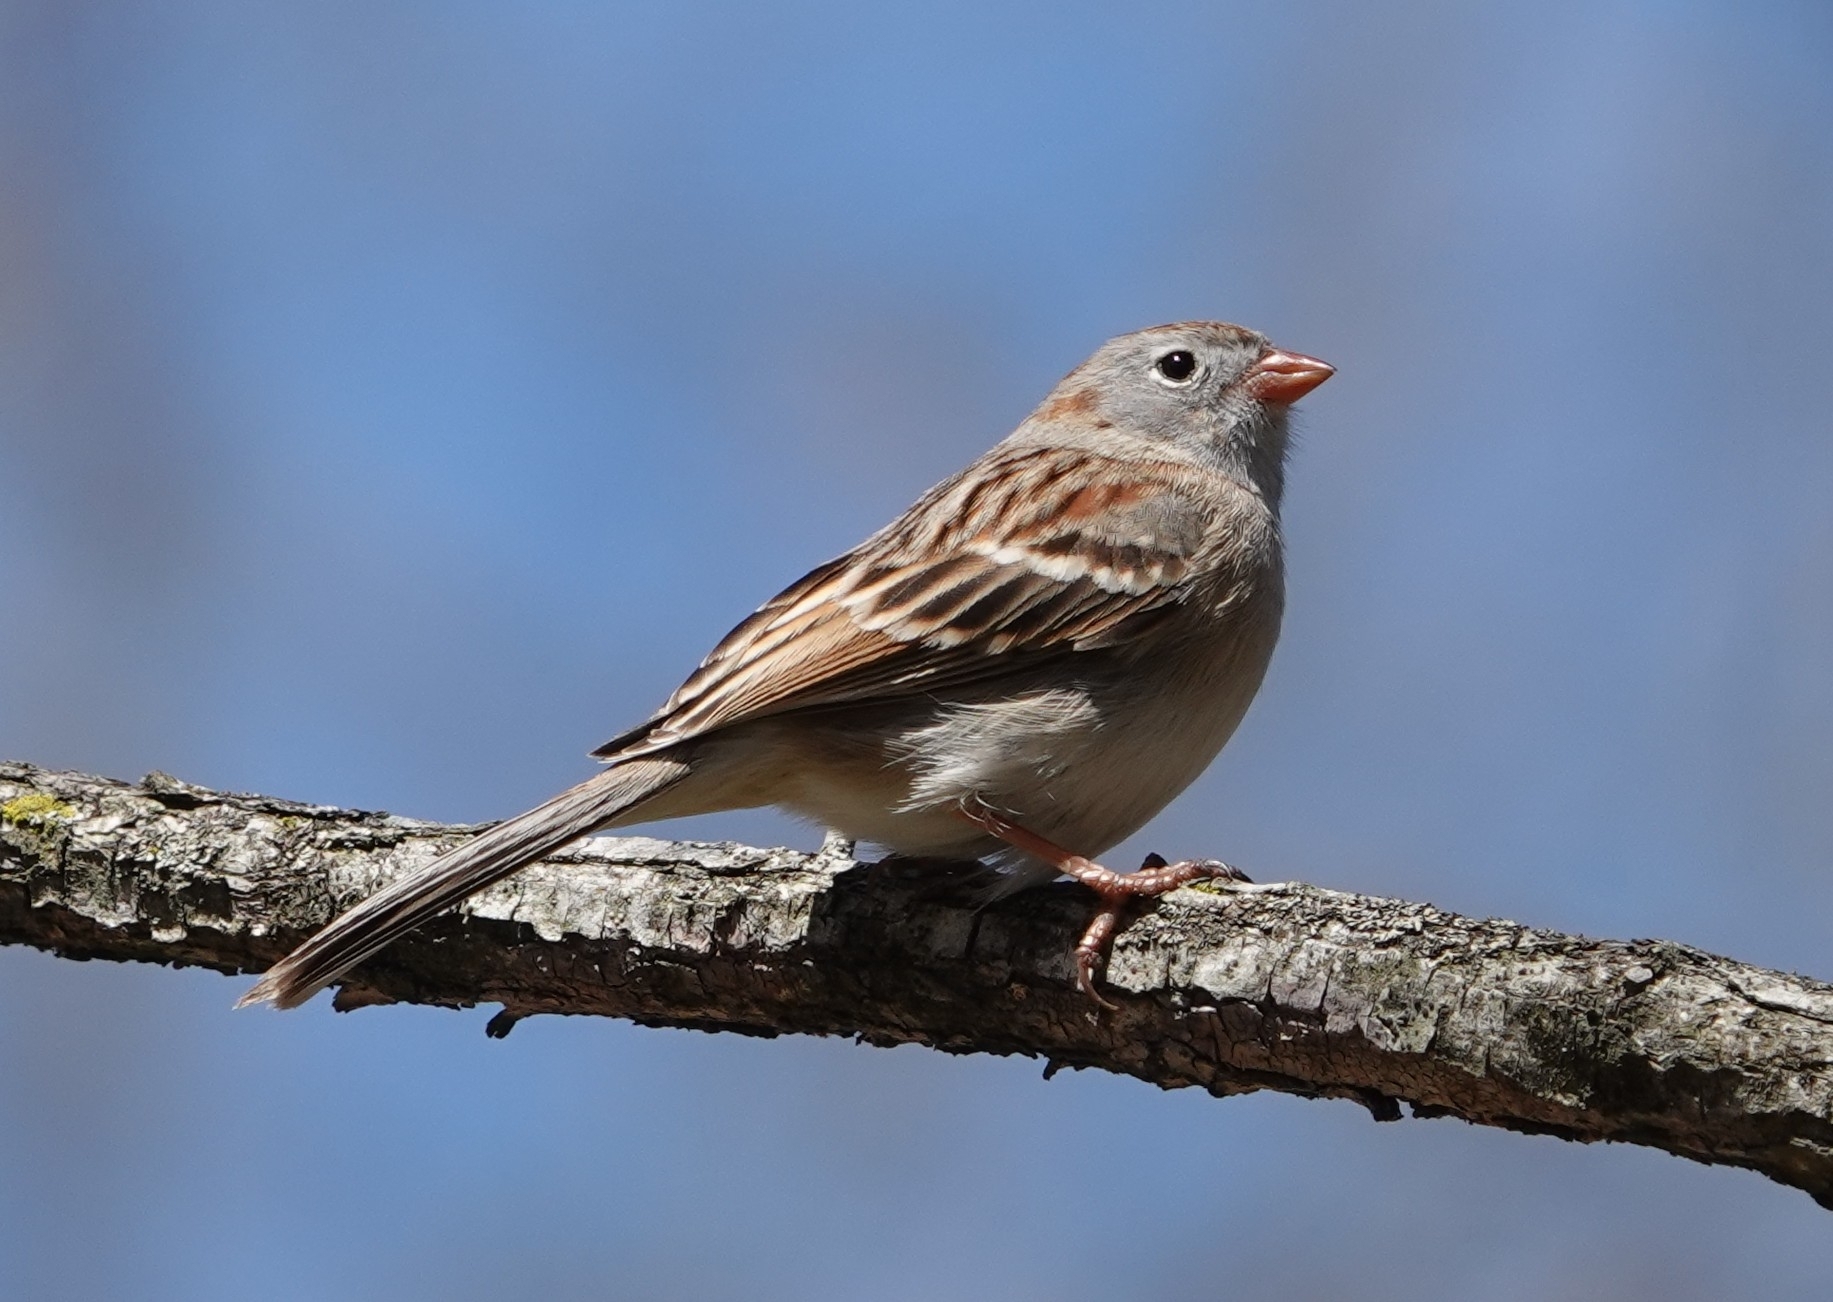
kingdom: Animalia
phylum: Chordata
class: Aves
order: Passeriformes
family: Passerellidae
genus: Spizella
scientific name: Spizella pusilla
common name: Field sparrow
